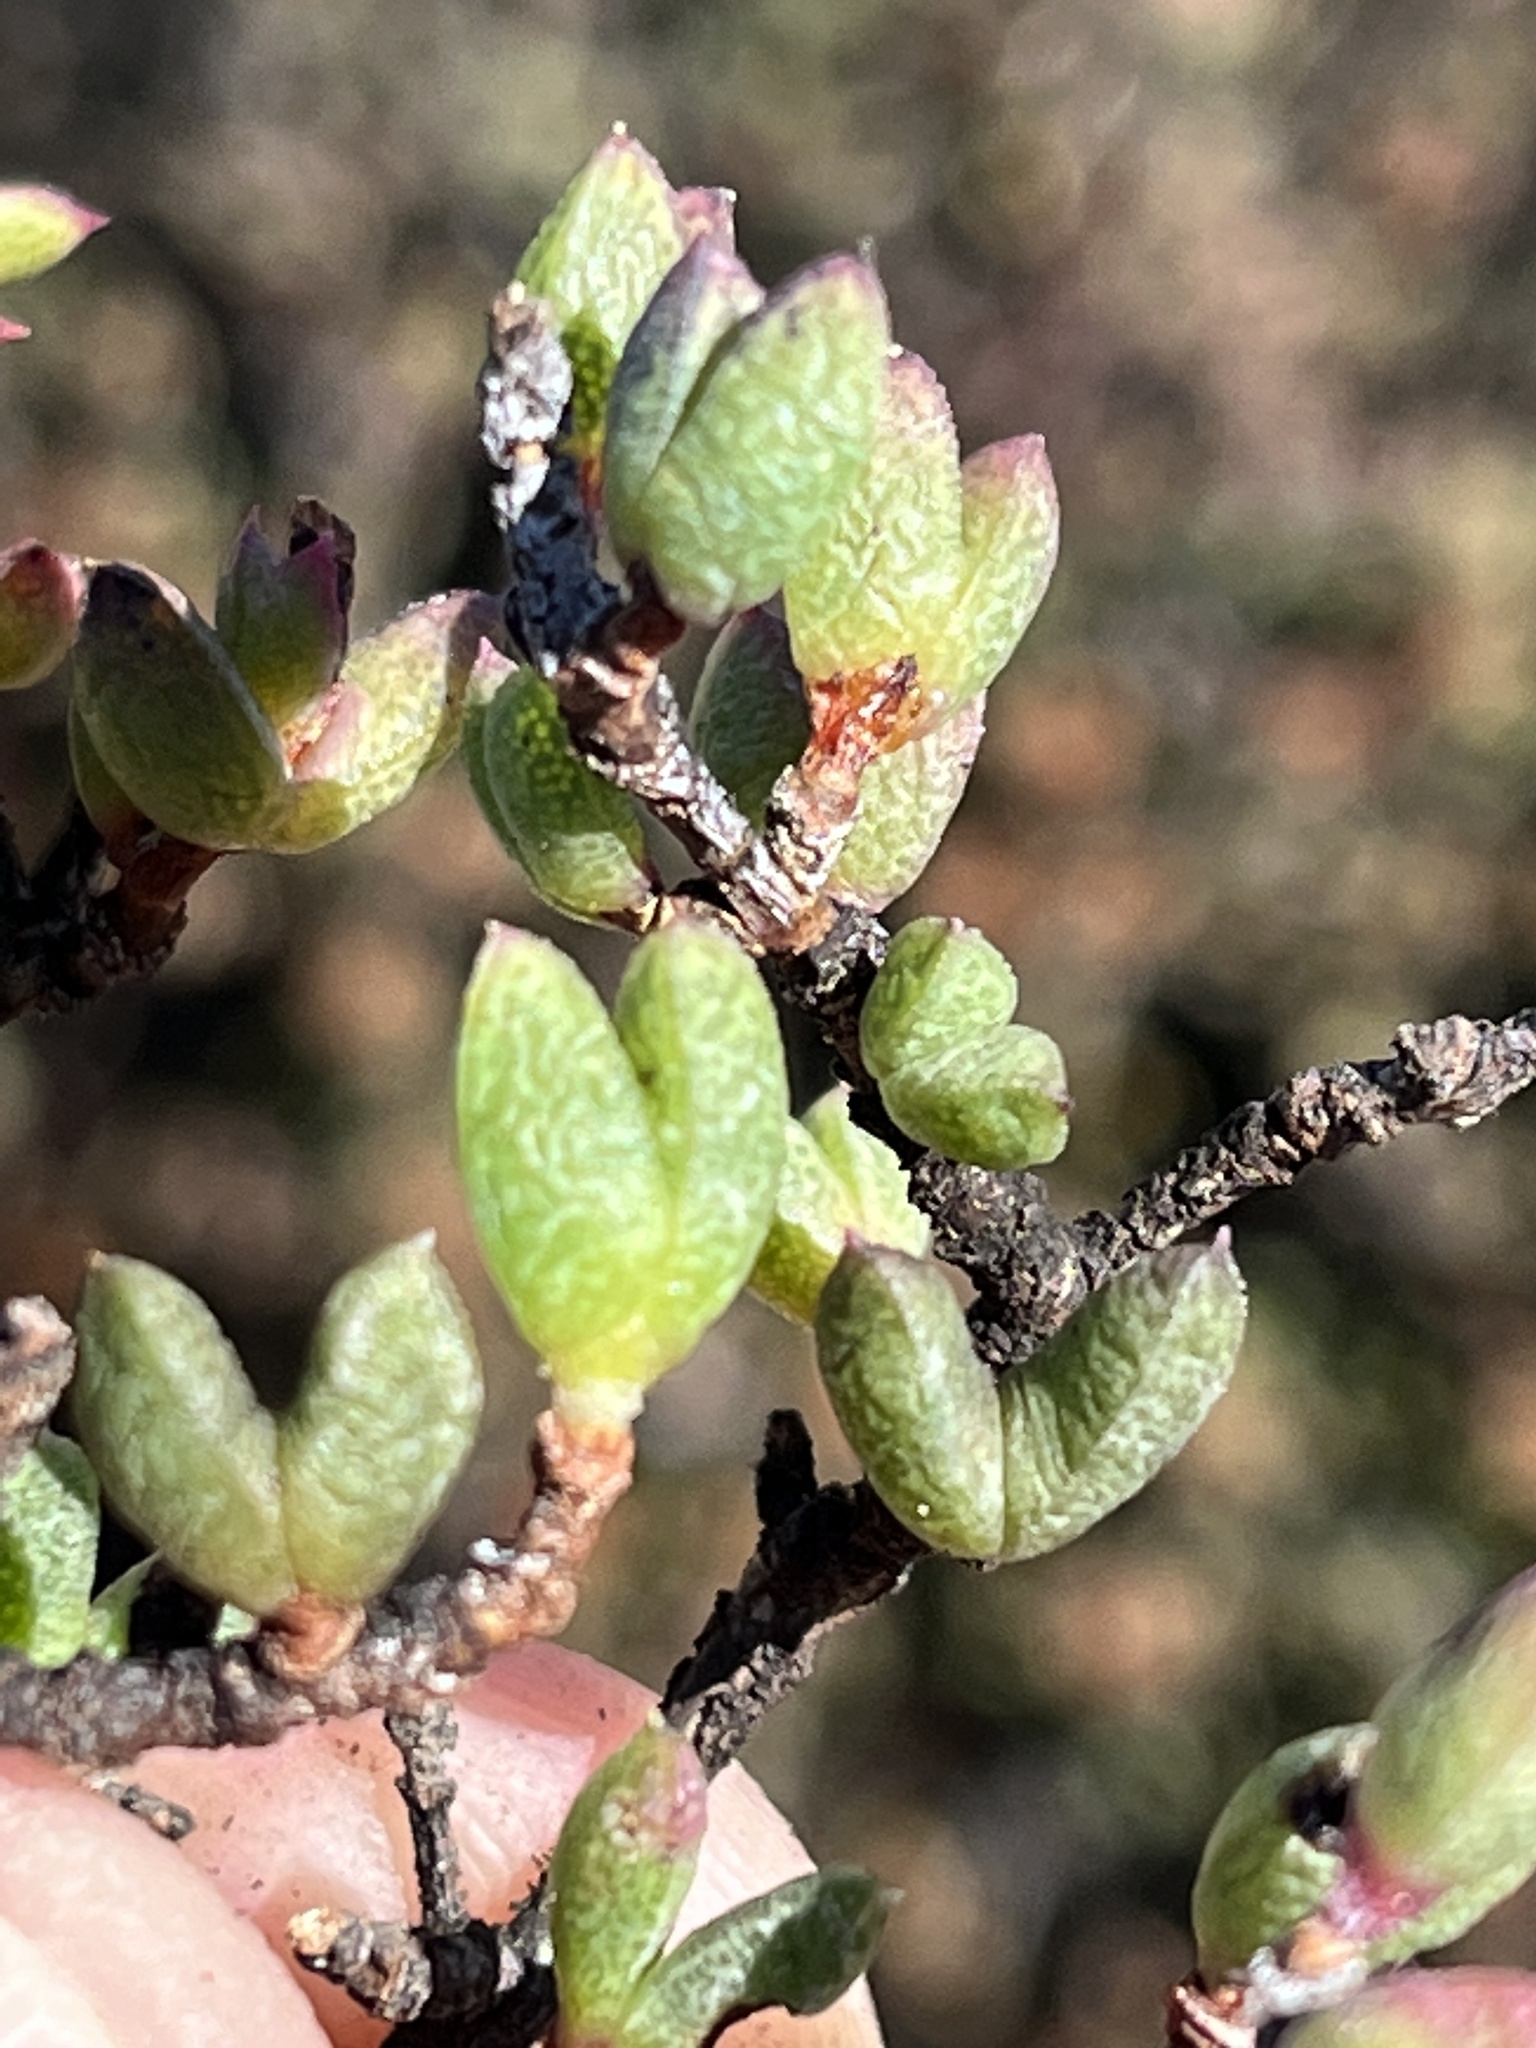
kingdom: Plantae
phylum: Tracheophyta
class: Magnoliopsida
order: Caryophyllales
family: Aizoaceae
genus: Ruschia
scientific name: Ruschia virgata
